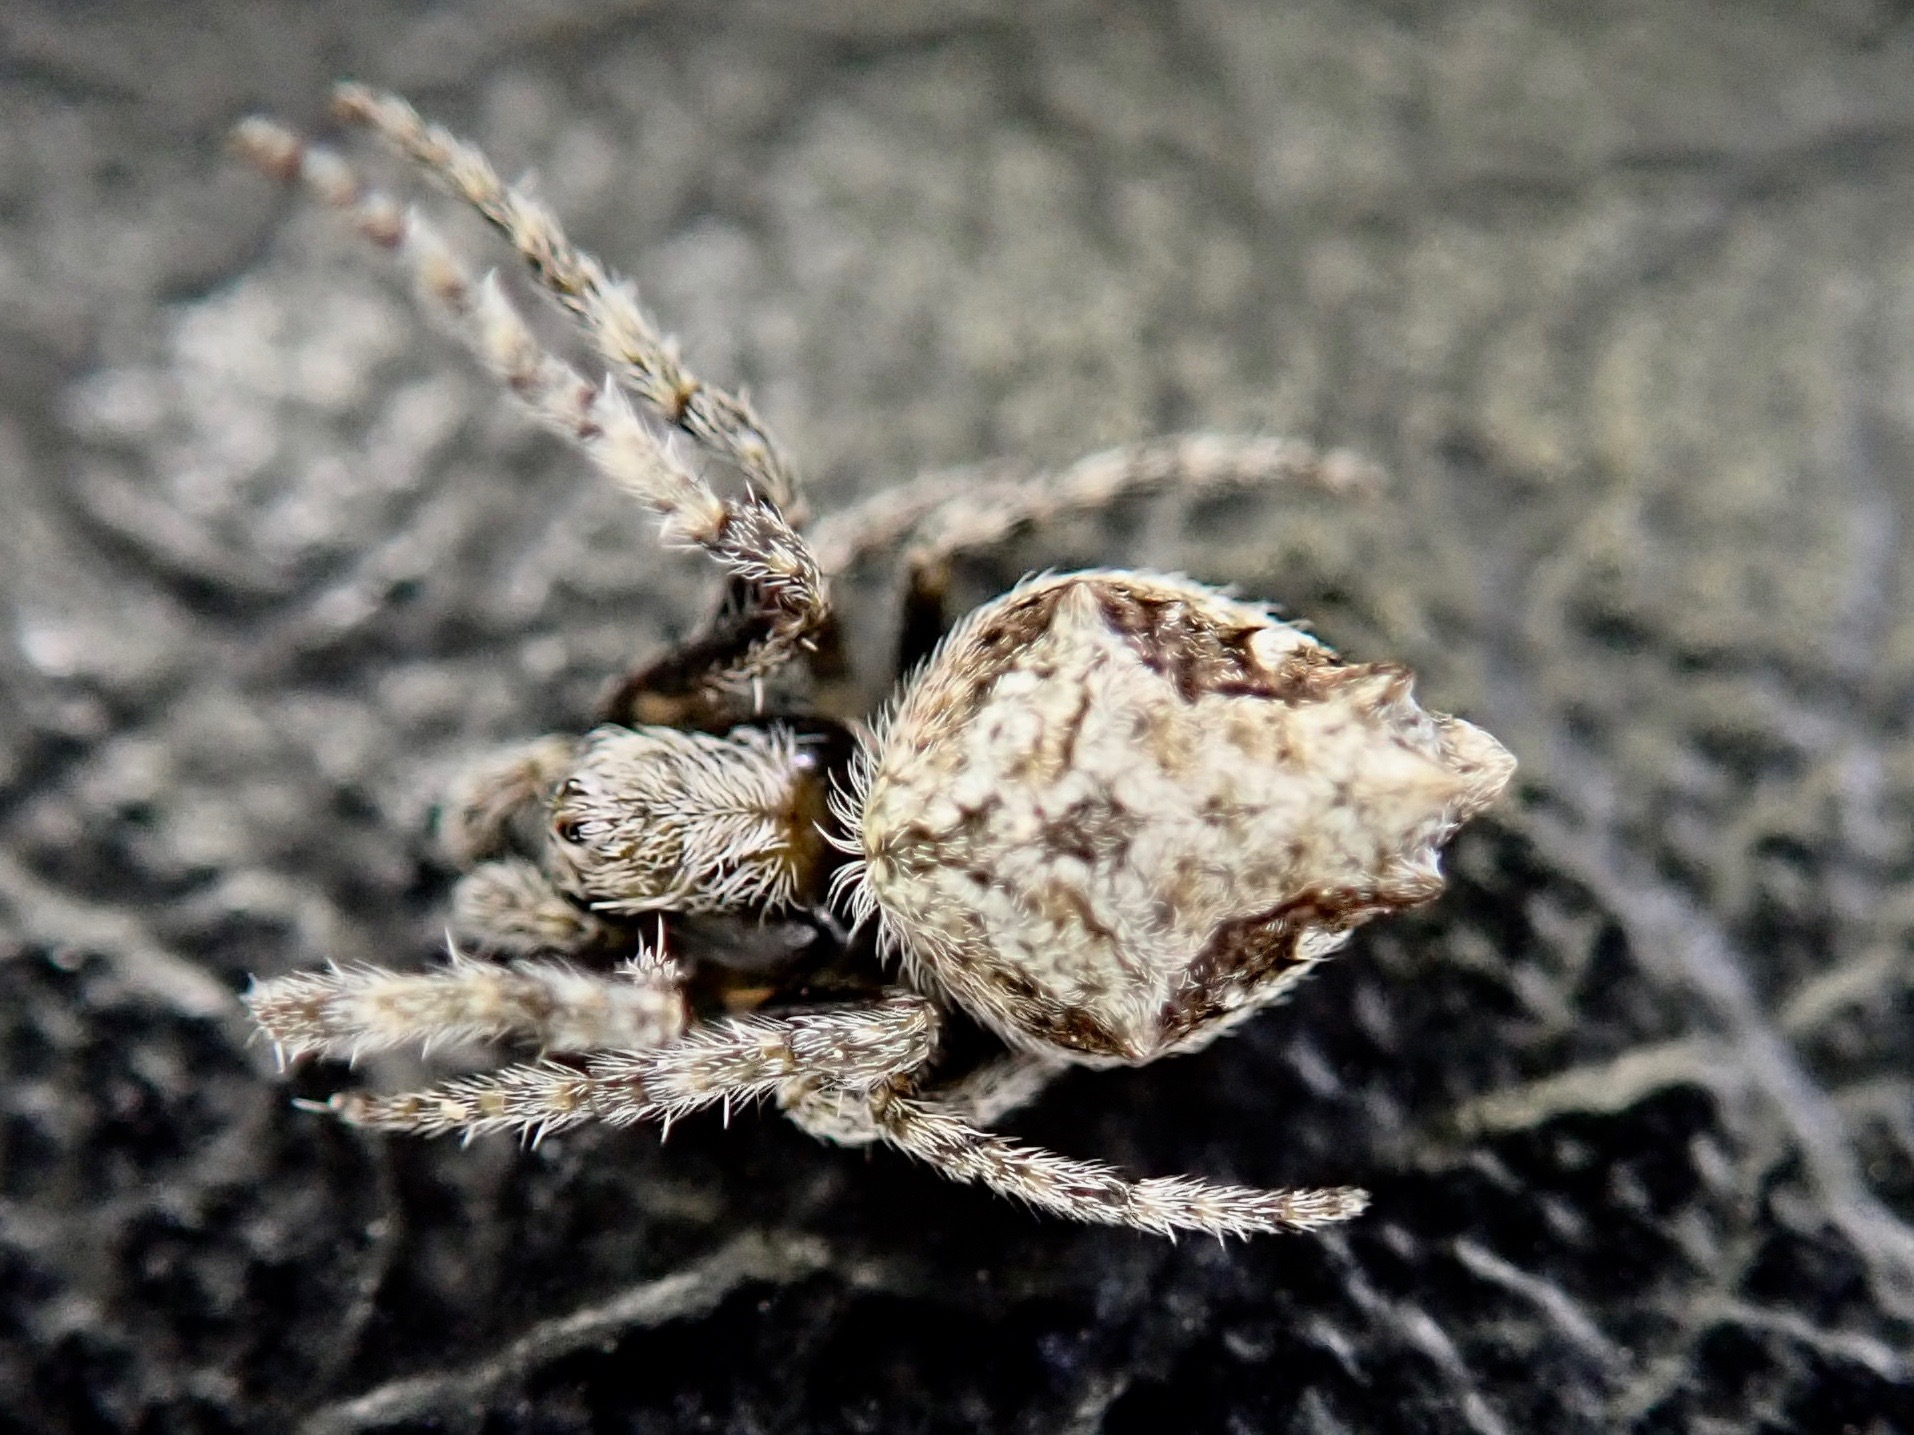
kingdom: Animalia
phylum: Arthropoda
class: Arachnida
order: Araneae
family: Araneidae
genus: Eriophora
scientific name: Eriophora pustulosa
